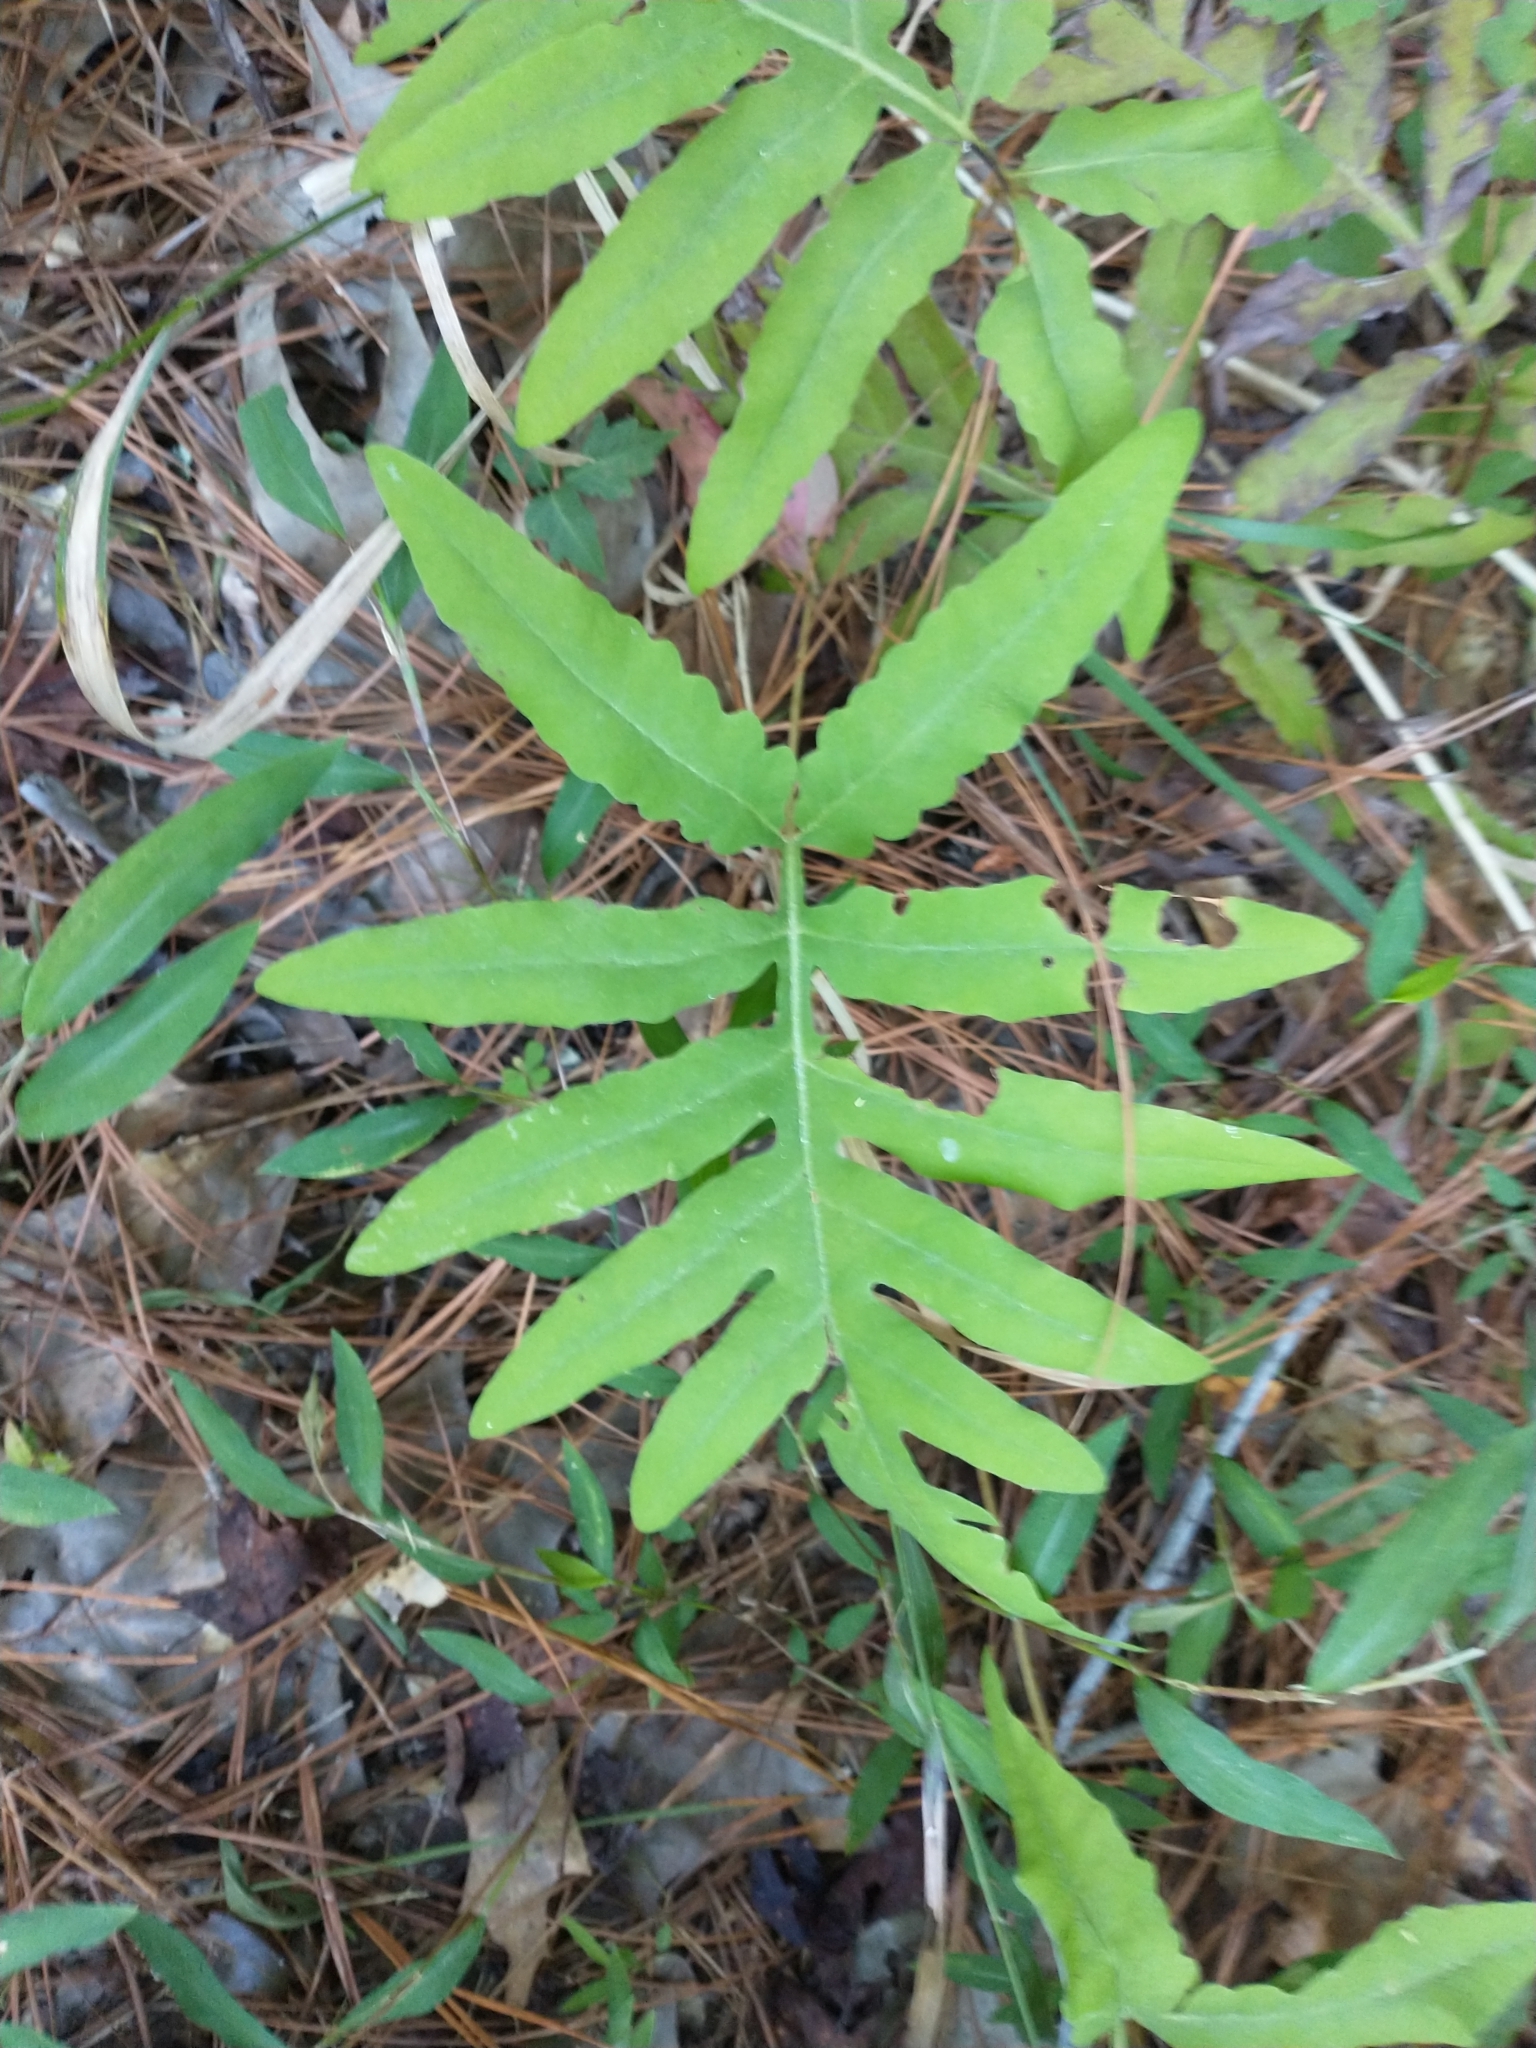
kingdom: Plantae
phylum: Tracheophyta
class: Polypodiopsida
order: Polypodiales
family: Onocleaceae
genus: Onoclea
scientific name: Onoclea sensibilis
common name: Sensitive fern
